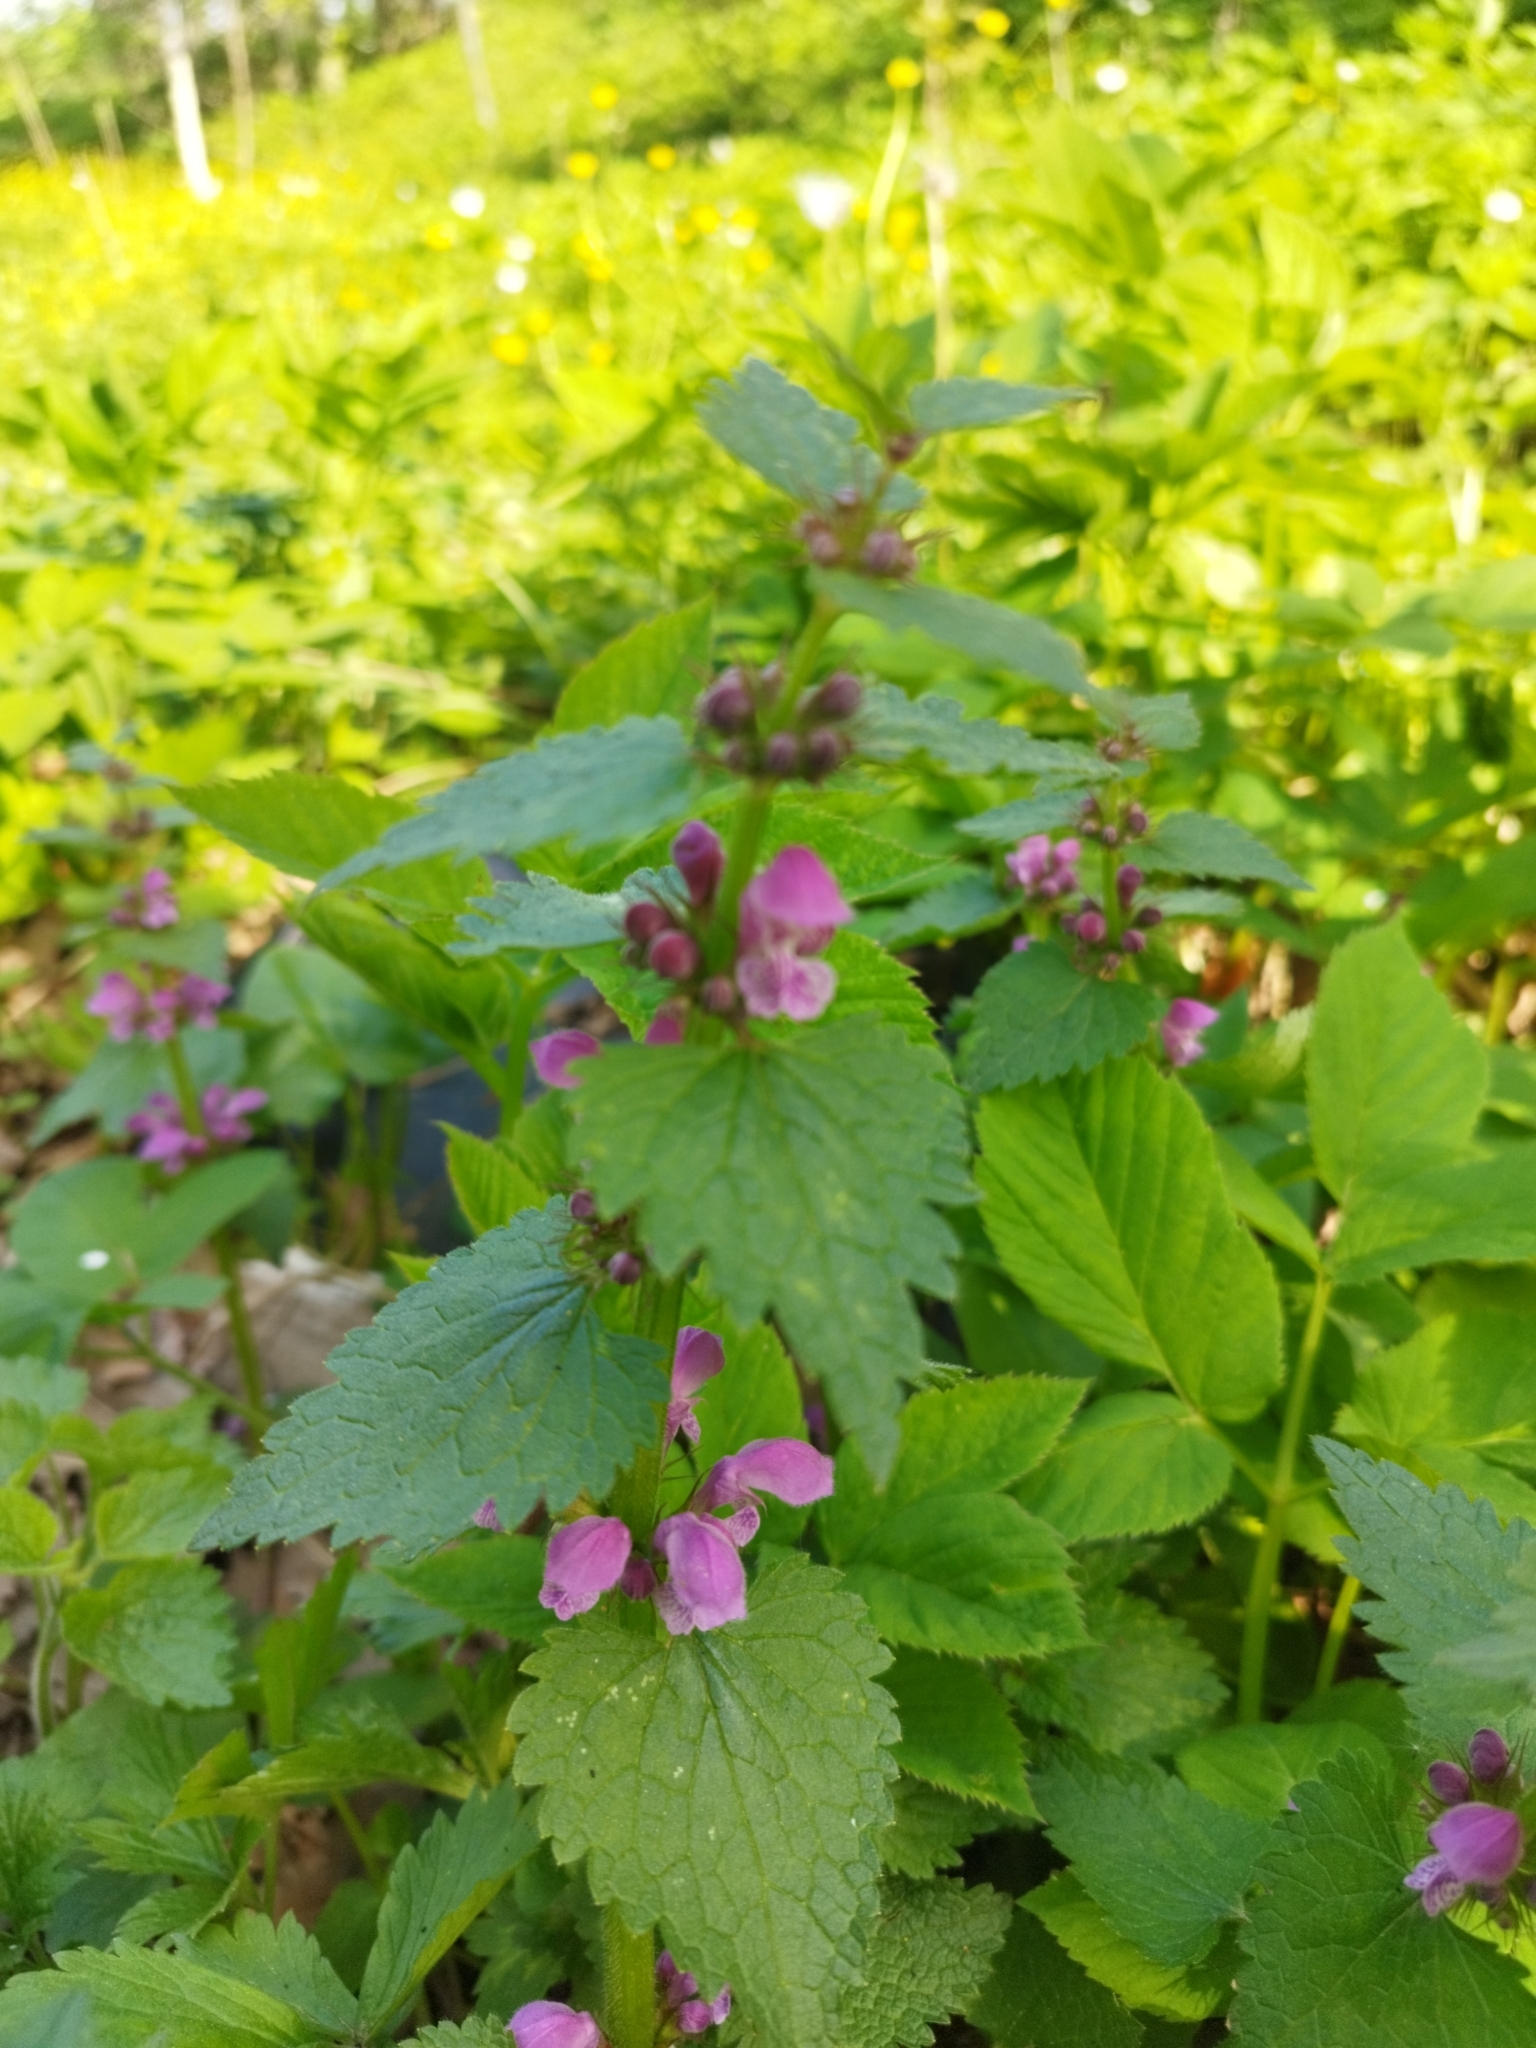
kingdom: Plantae
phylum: Tracheophyta
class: Magnoliopsida
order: Lamiales
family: Lamiaceae
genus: Lamium
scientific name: Lamium maculatum
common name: Spotted dead-nettle
